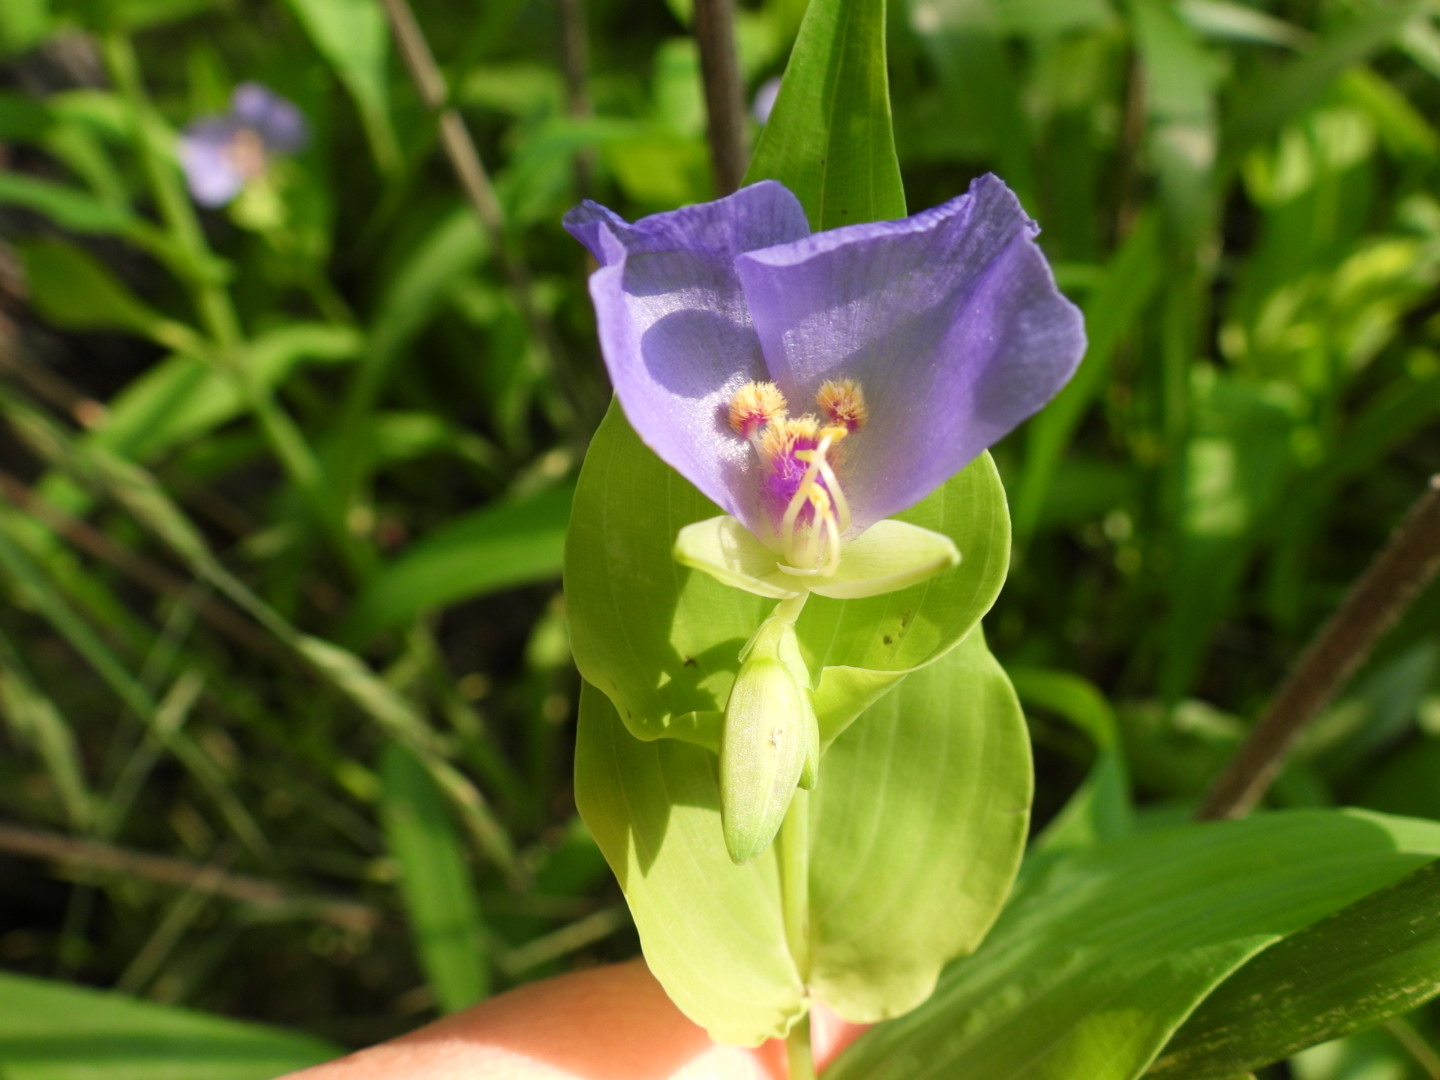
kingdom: Plantae
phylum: Tracheophyta
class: Liliopsida
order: Commelinales
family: Commelinaceae
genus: Tinantia
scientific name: Tinantia anomala
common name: False dayflower
